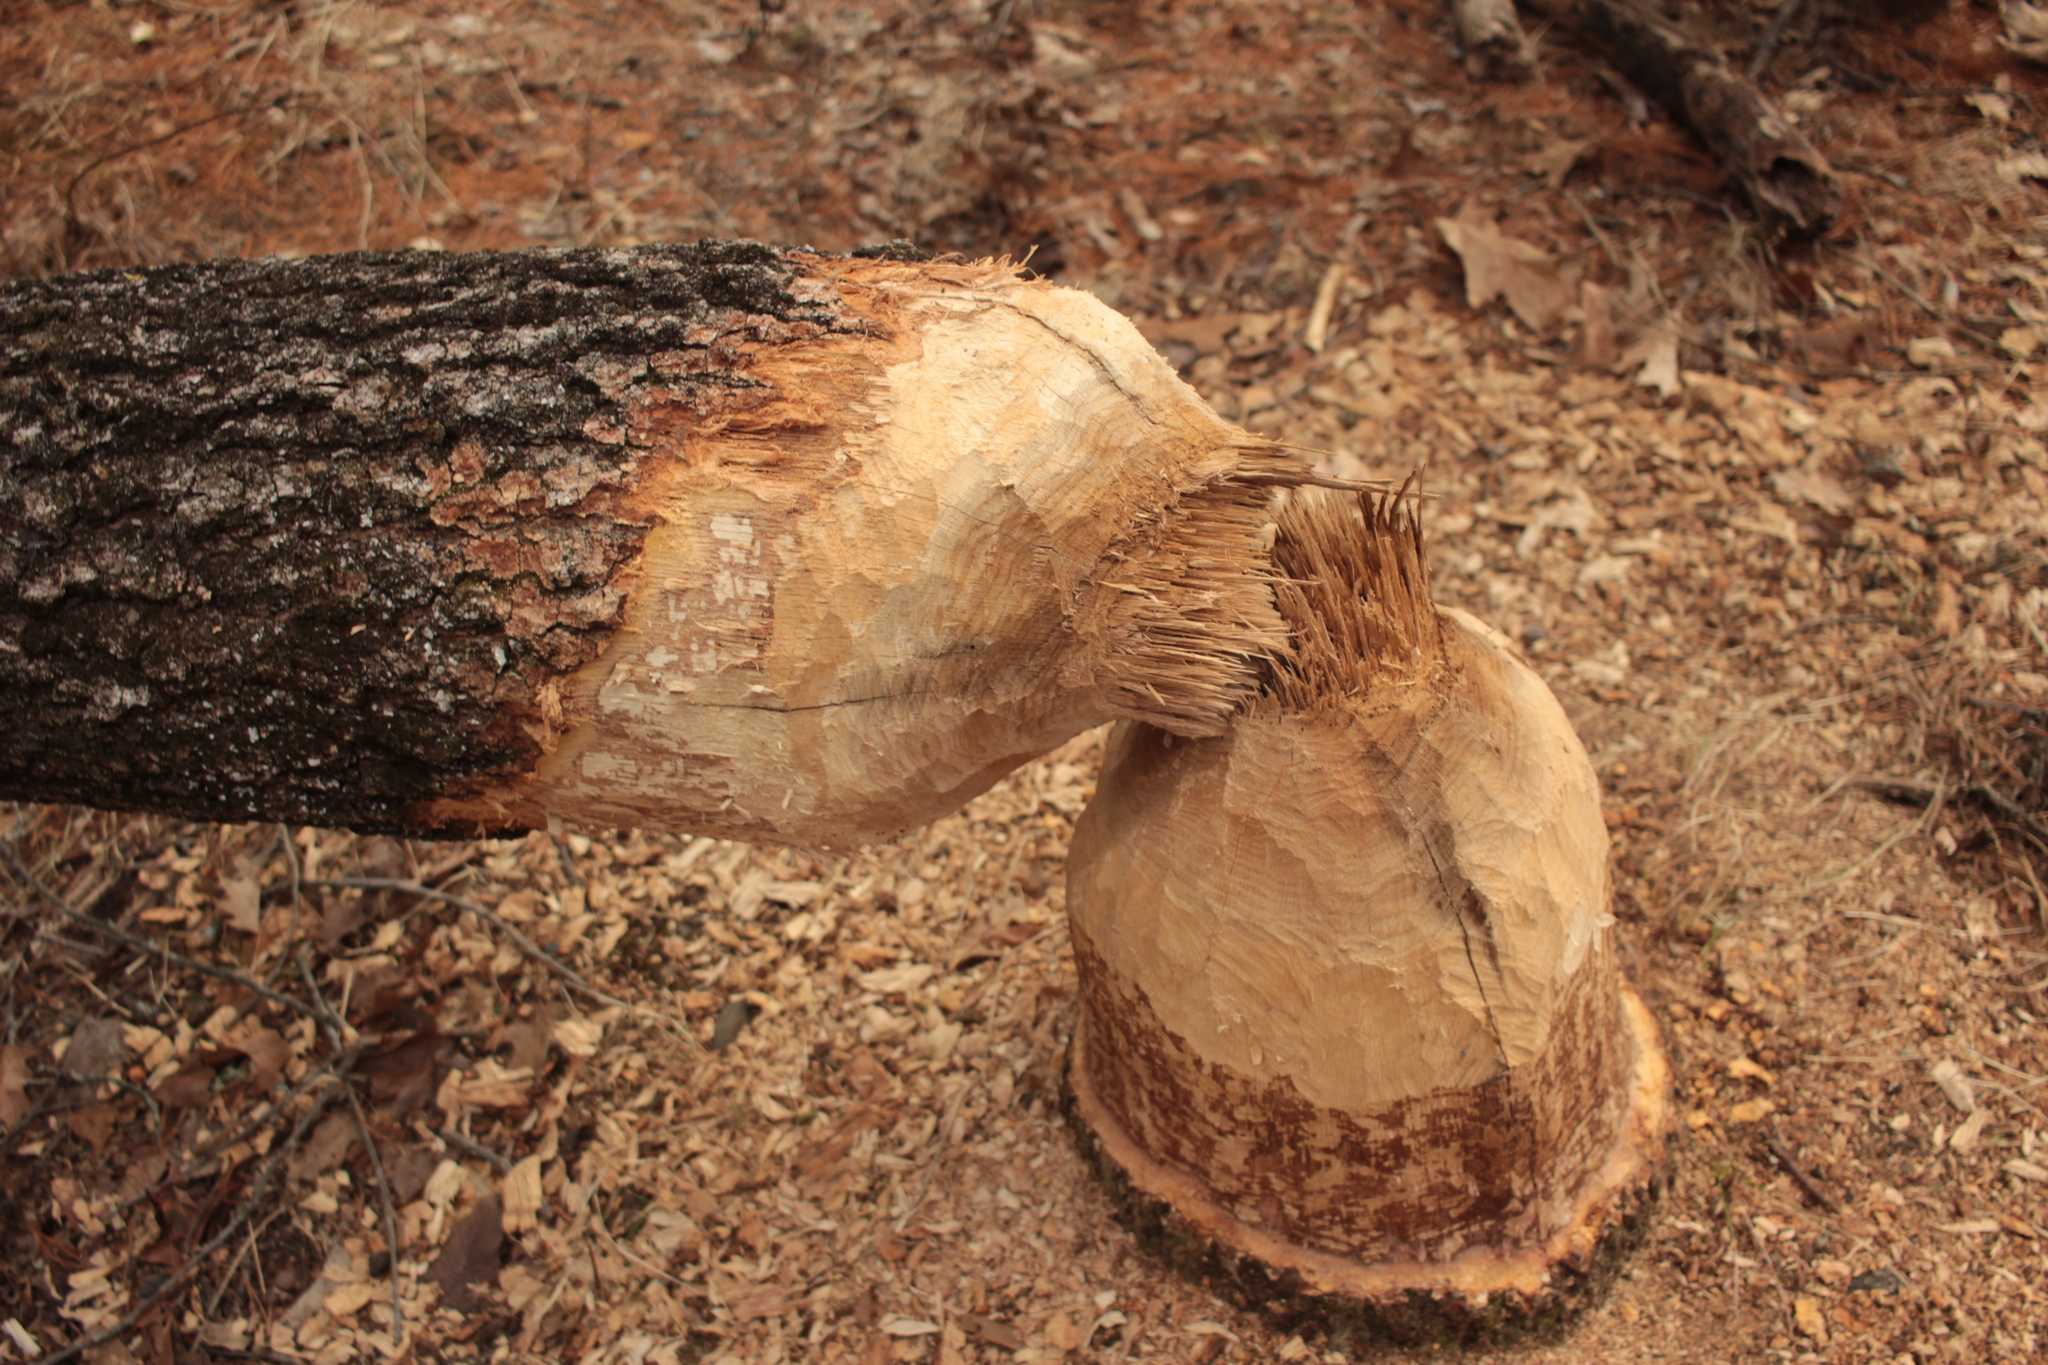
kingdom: Animalia
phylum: Chordata
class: Mammalia
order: Rodentia
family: Castoridae
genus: Castor
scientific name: Castor canadensis
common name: American beaver
